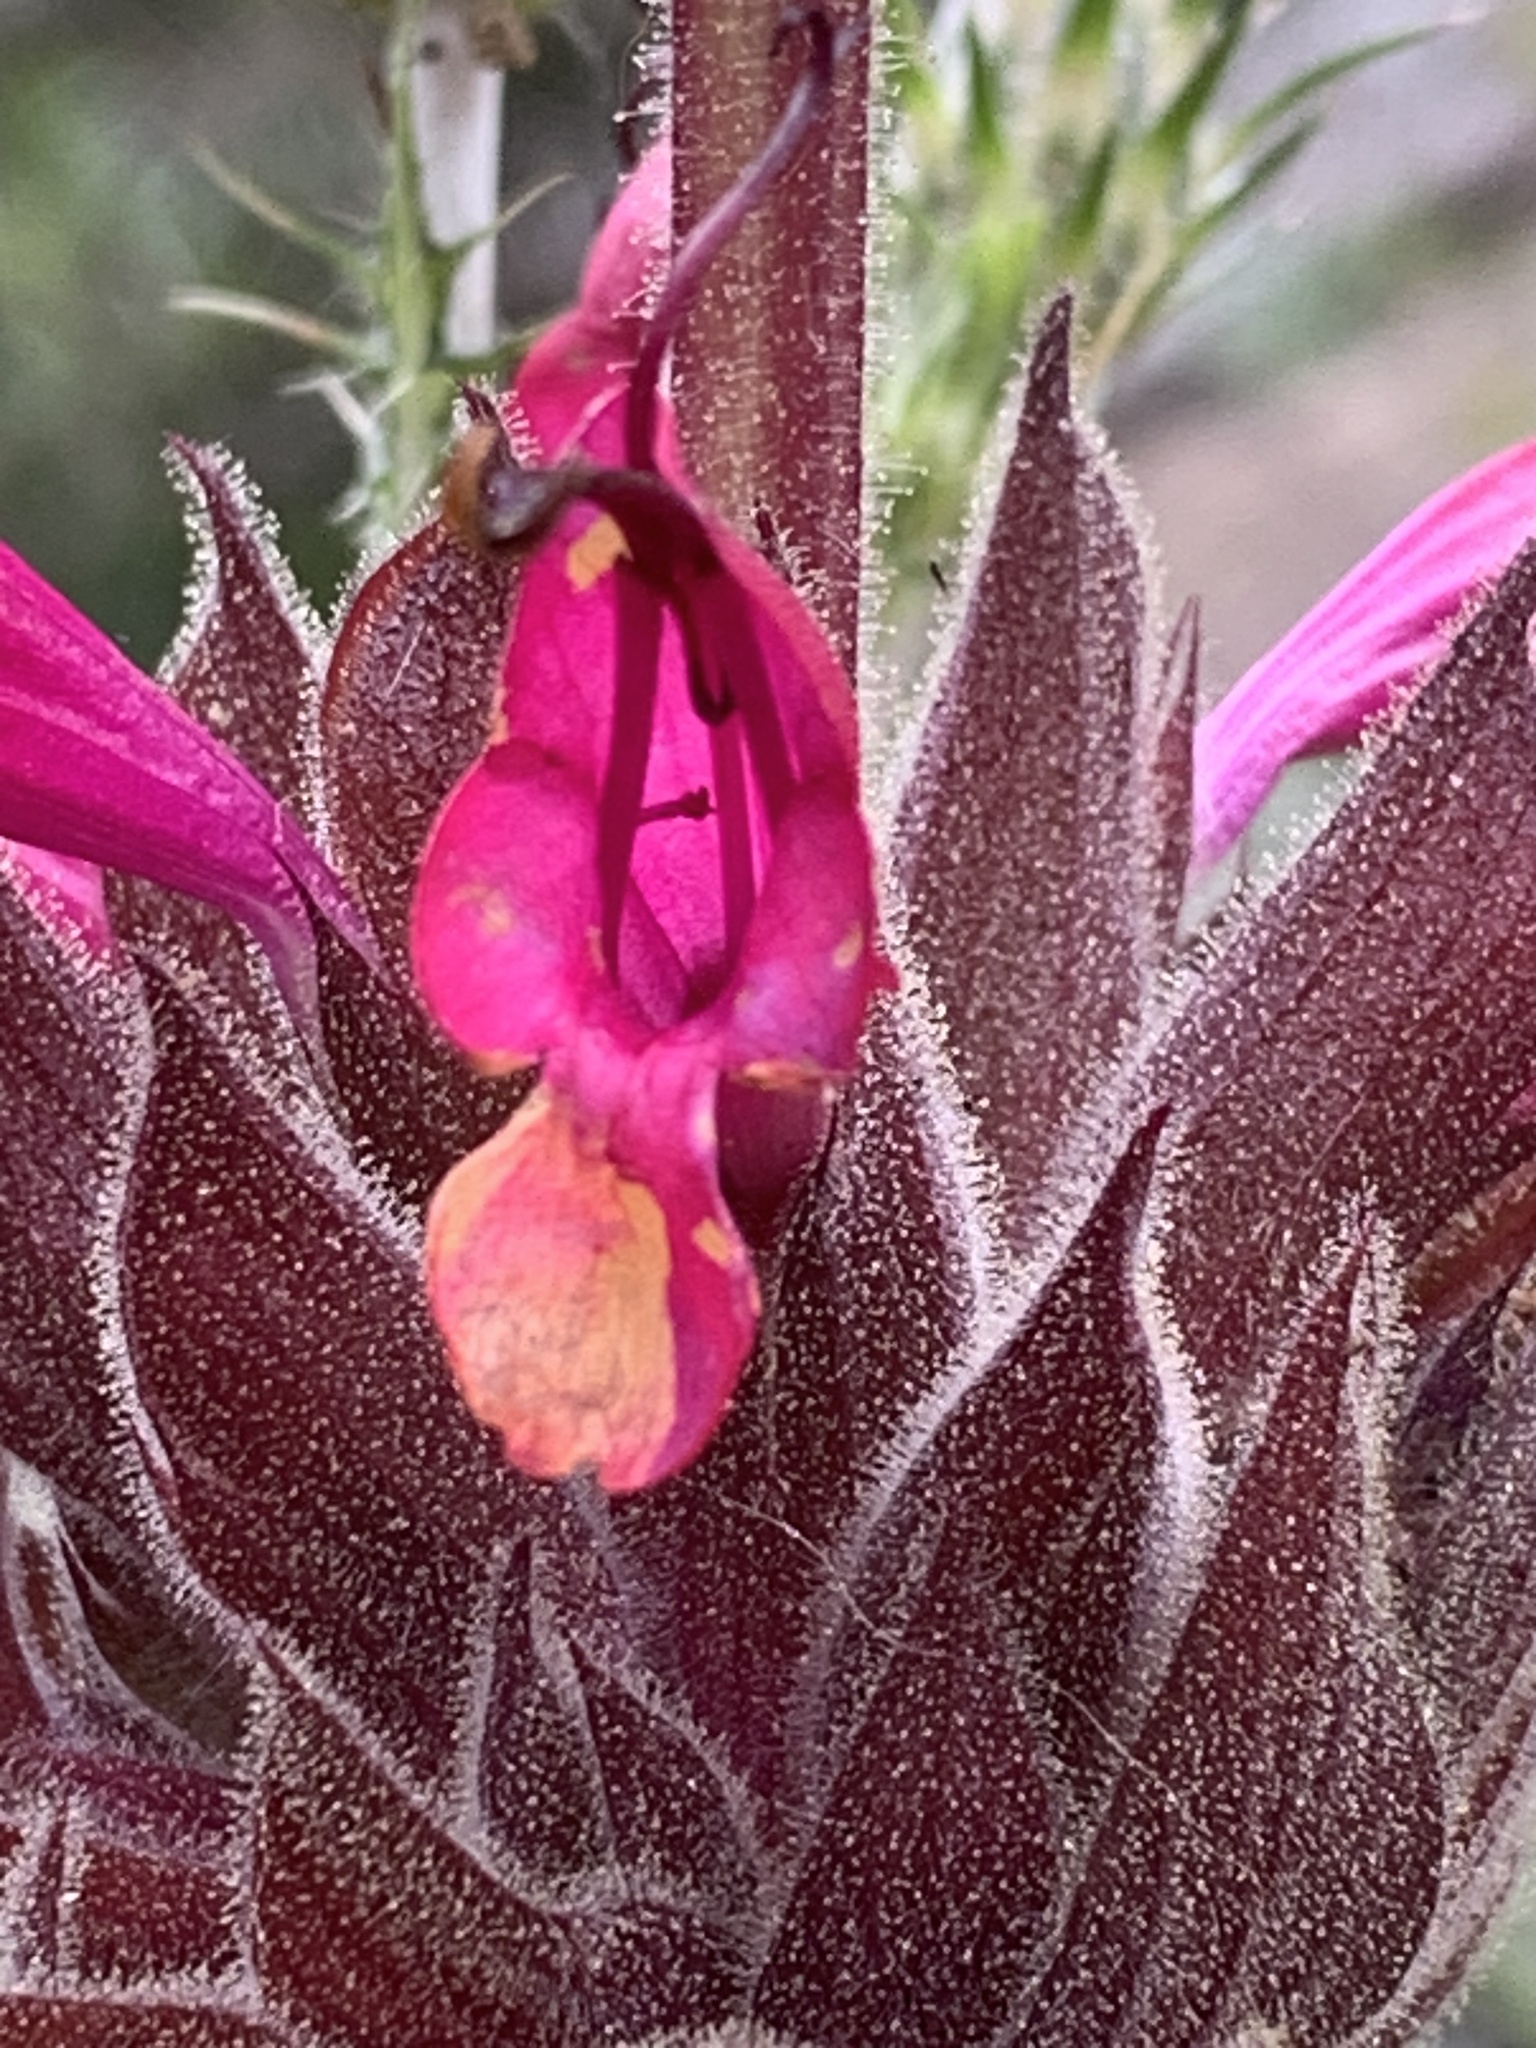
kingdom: Plantae
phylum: Tracheophyta
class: Magnoliopsida
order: Lamiales
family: Lamiaceae
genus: Salvia
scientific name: Salvia spathacea
